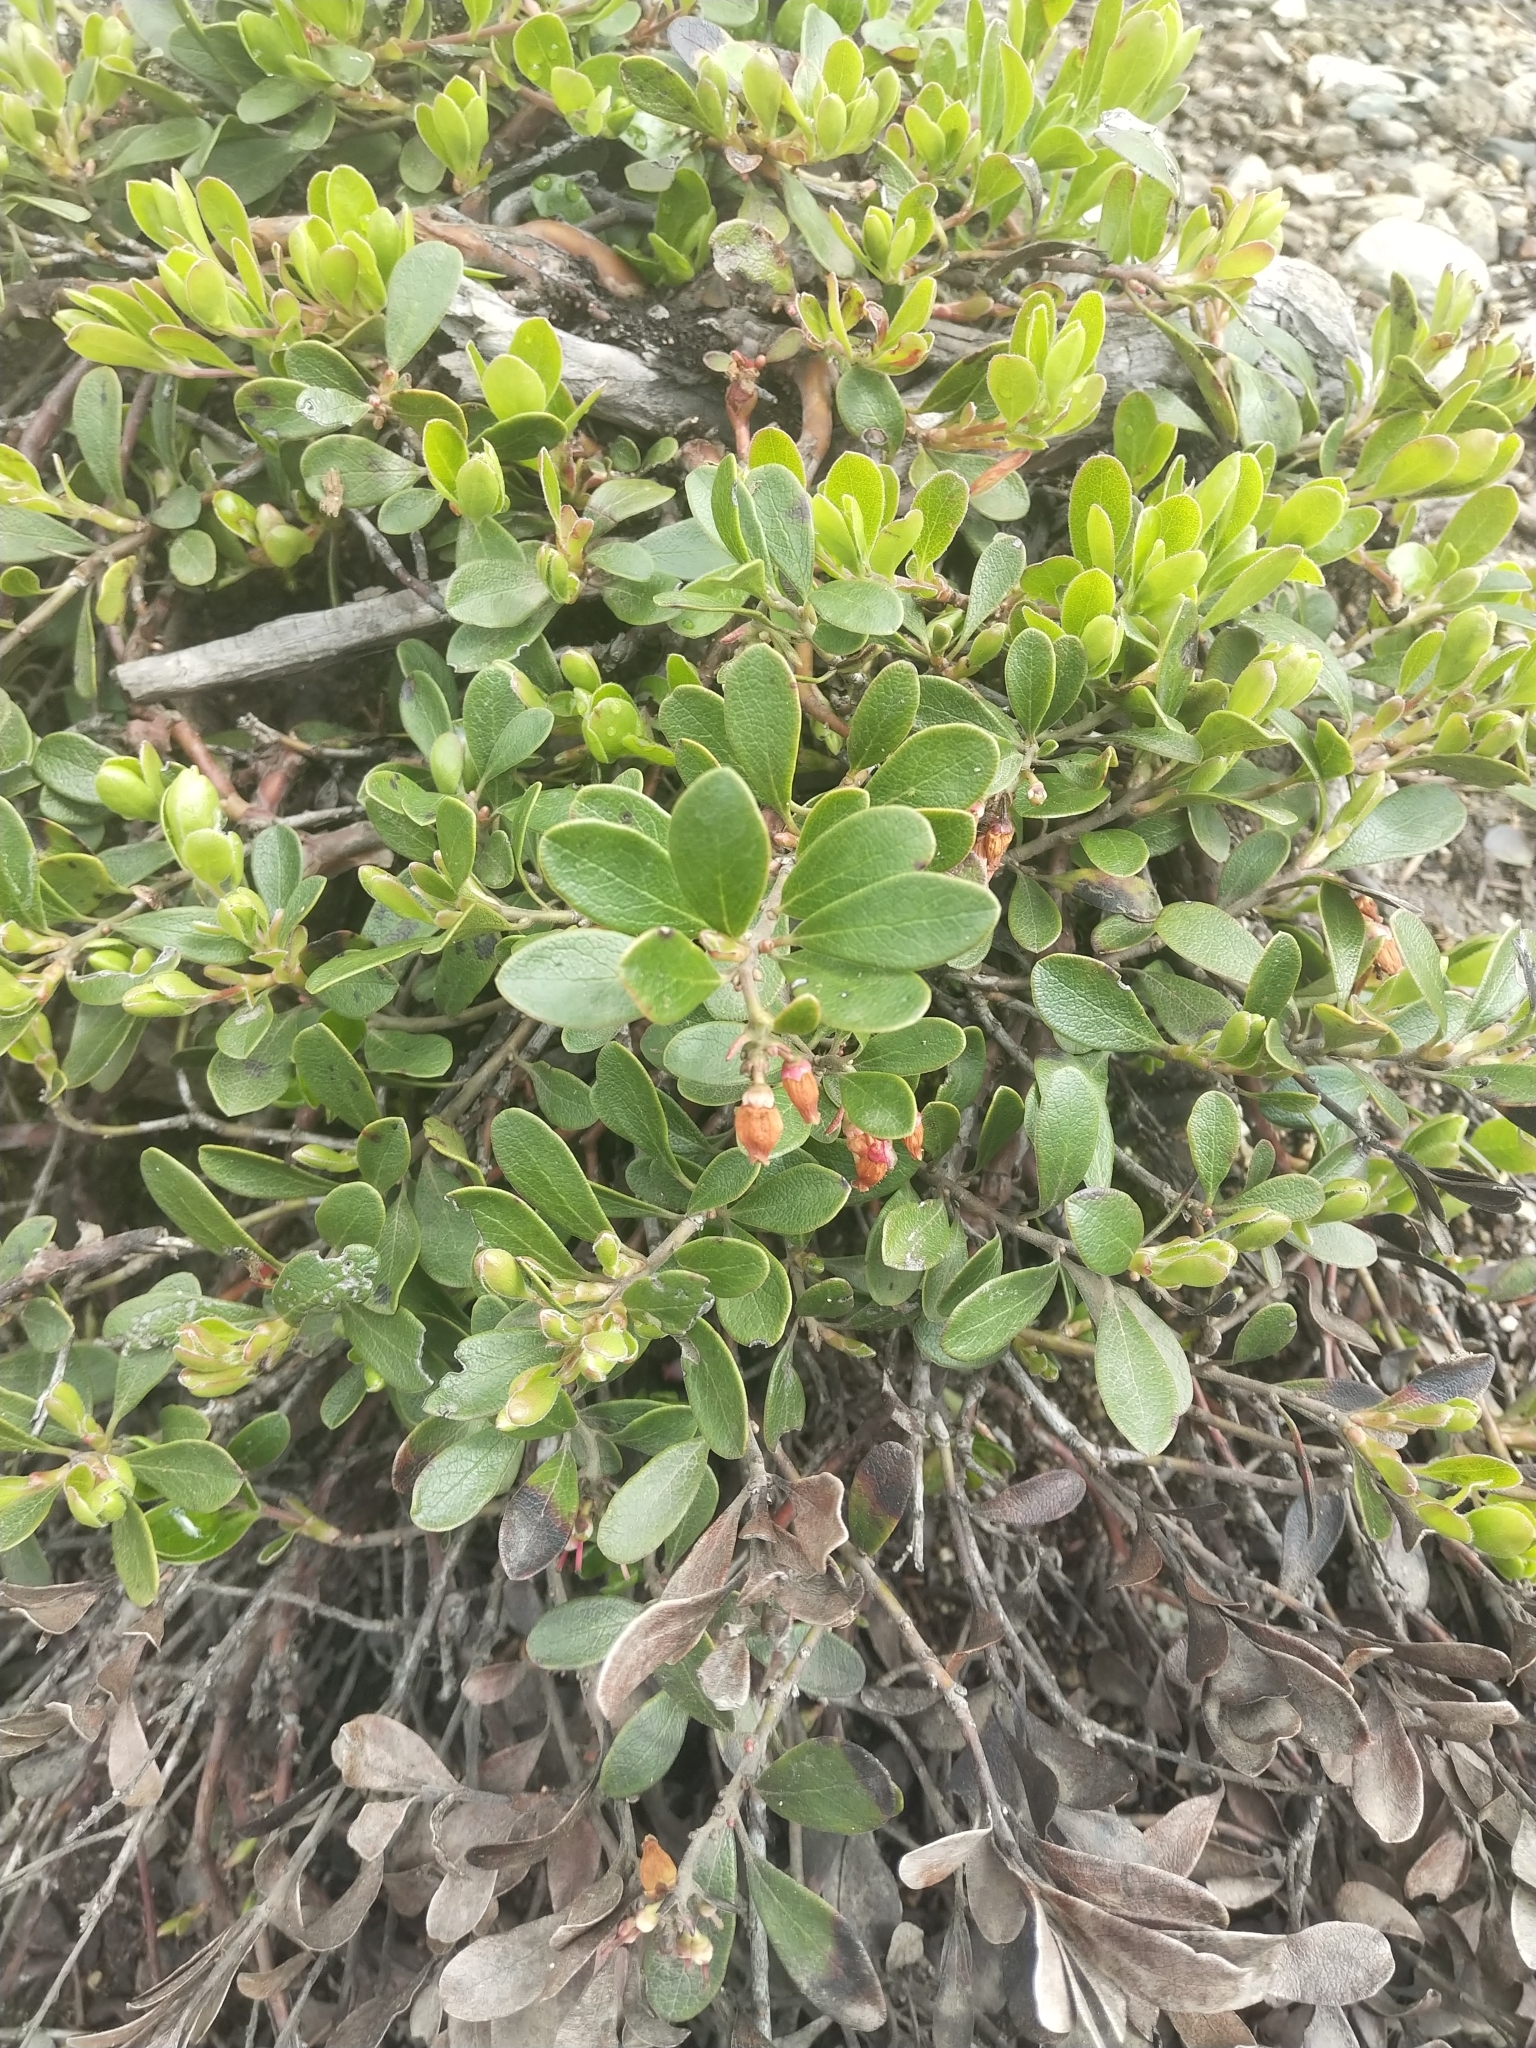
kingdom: Plantae
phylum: Tracheophyta
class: Magnoliopsida
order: Ericales
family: Ericaceae
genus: Arctostaphylos
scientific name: Arctostaphylos uva-ursi
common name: Bearberry
